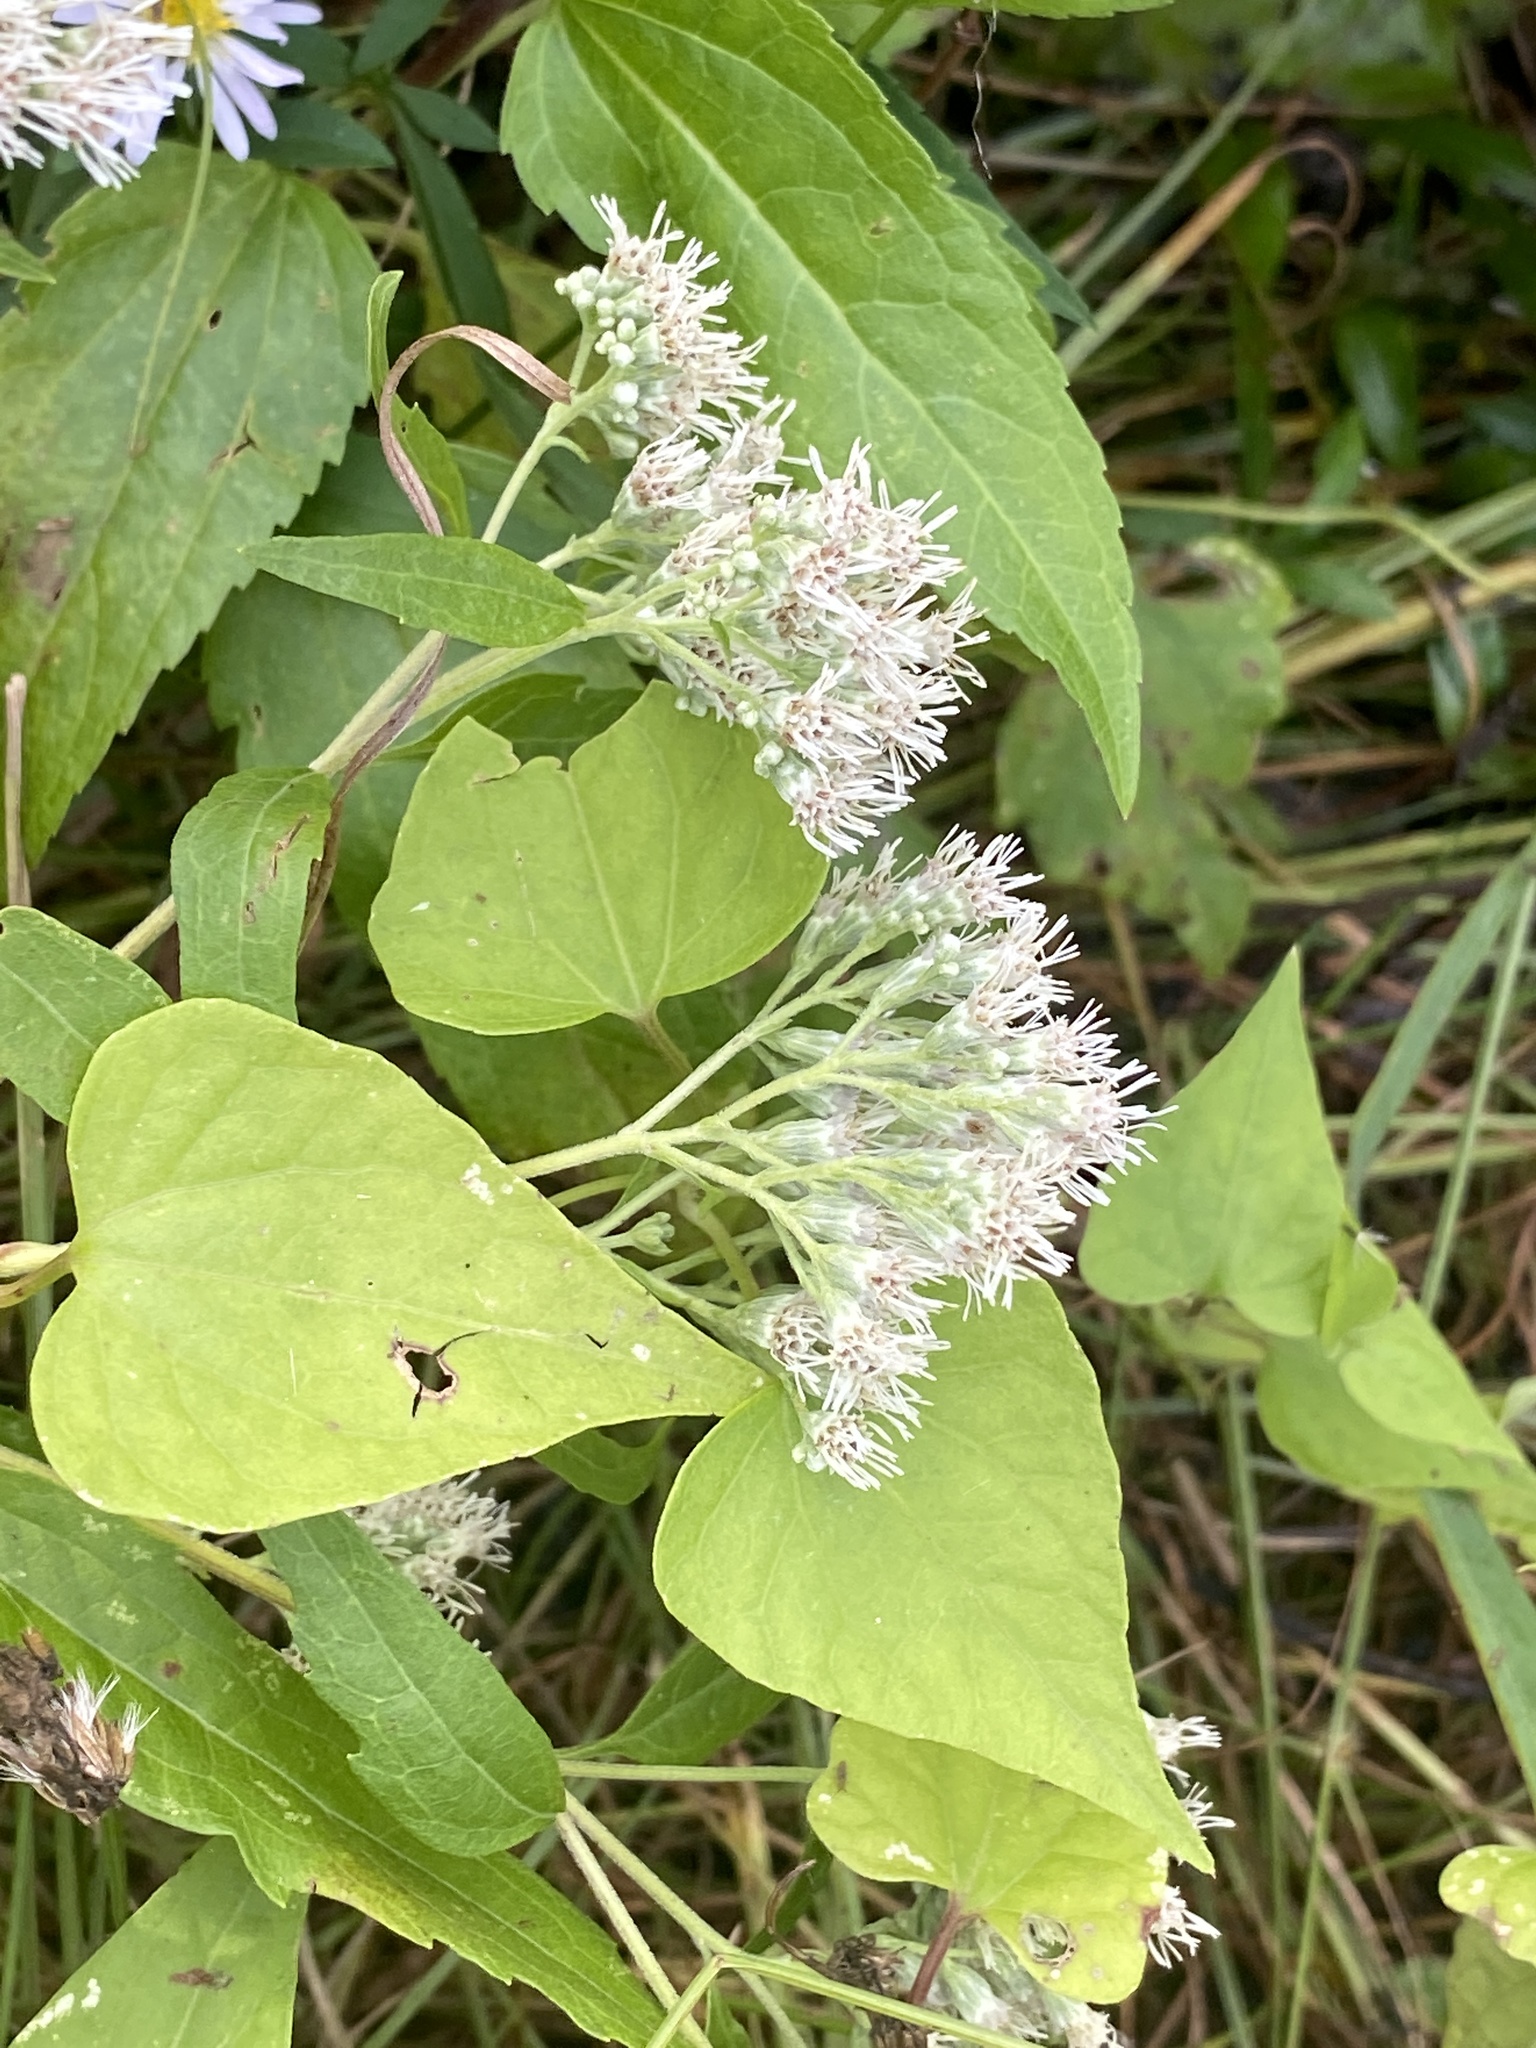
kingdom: Plantae
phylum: Tracheophyta
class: Magnoliopsida
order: Asterales
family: Asteraceae
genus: Mikania
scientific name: Mikania scandens
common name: Climbing hempvine
